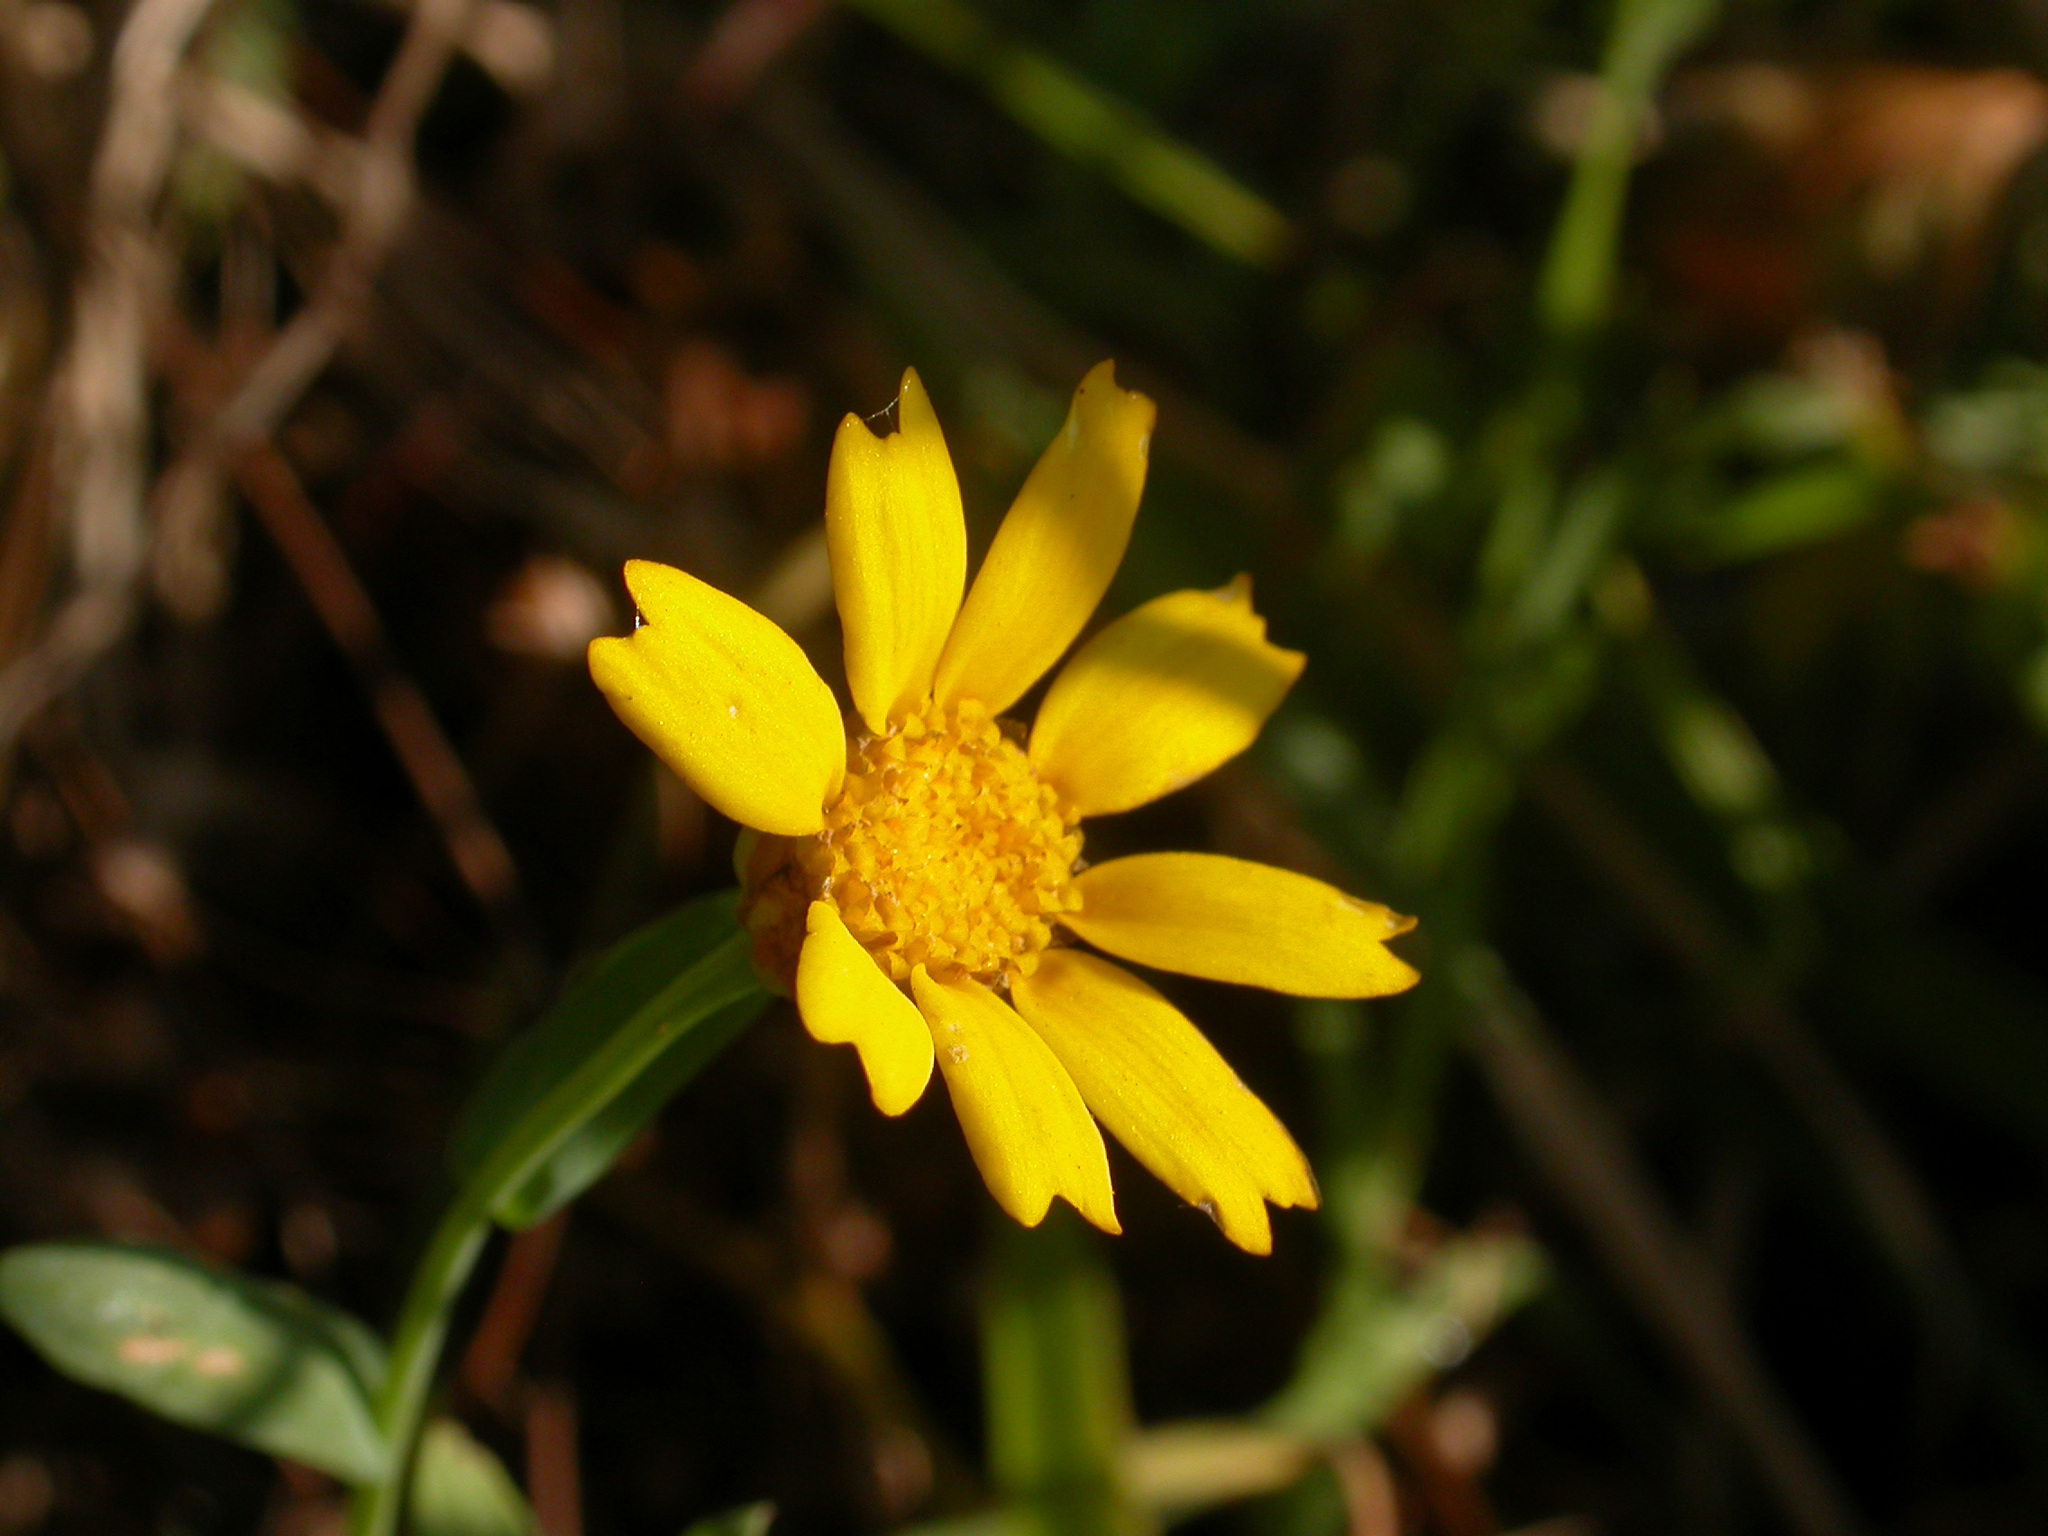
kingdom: Plantae
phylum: Tracheophyta
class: Magnoliopsida
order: Asterales
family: Asteraceae
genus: Glebionis
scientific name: Glebionis segetum
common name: Corndaisy
